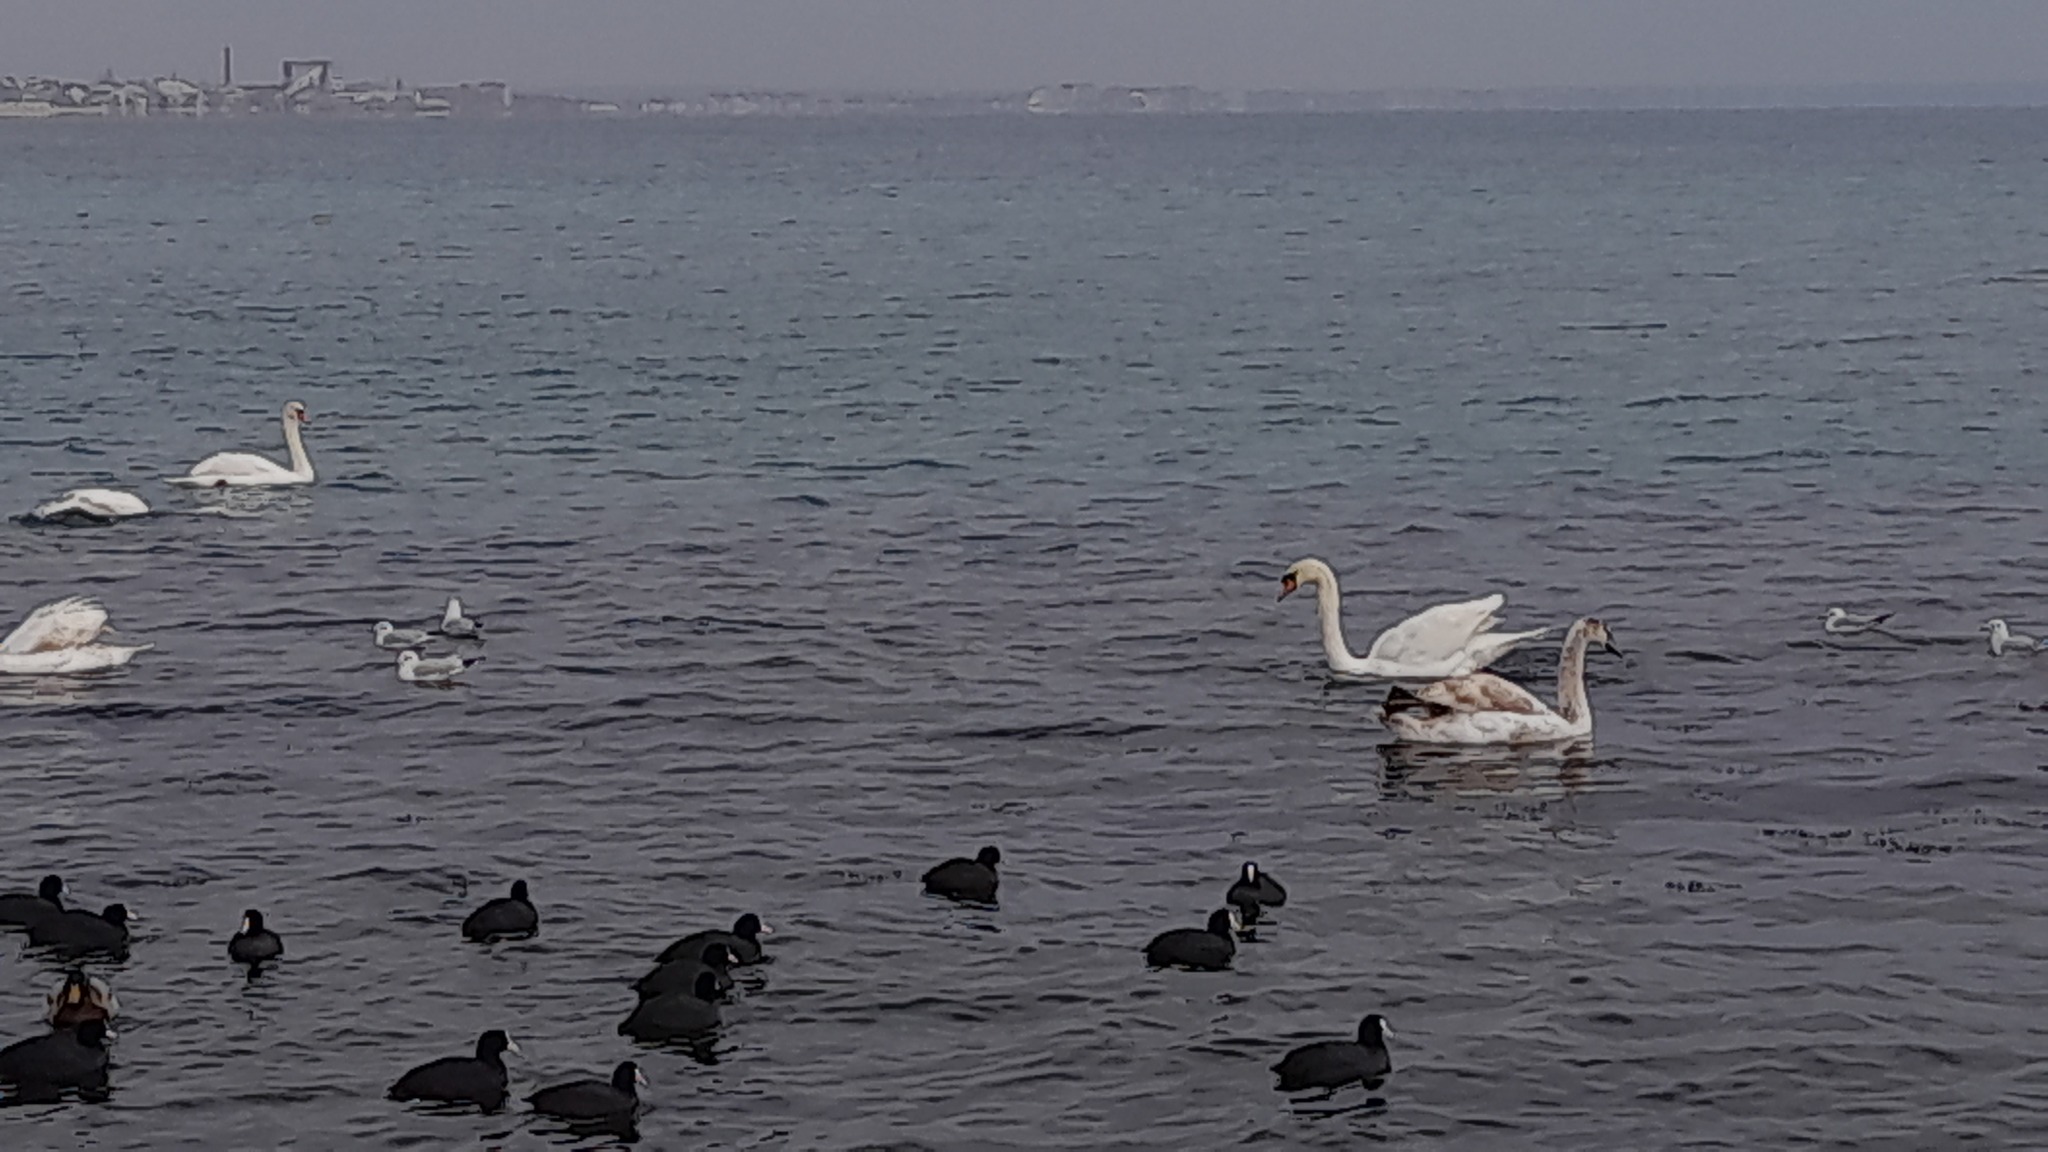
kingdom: Animalia
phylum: Chordata
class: Aves
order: Anseriformes
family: Anatidae
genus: Cygnus
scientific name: Cygnus olor
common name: Mute swan
